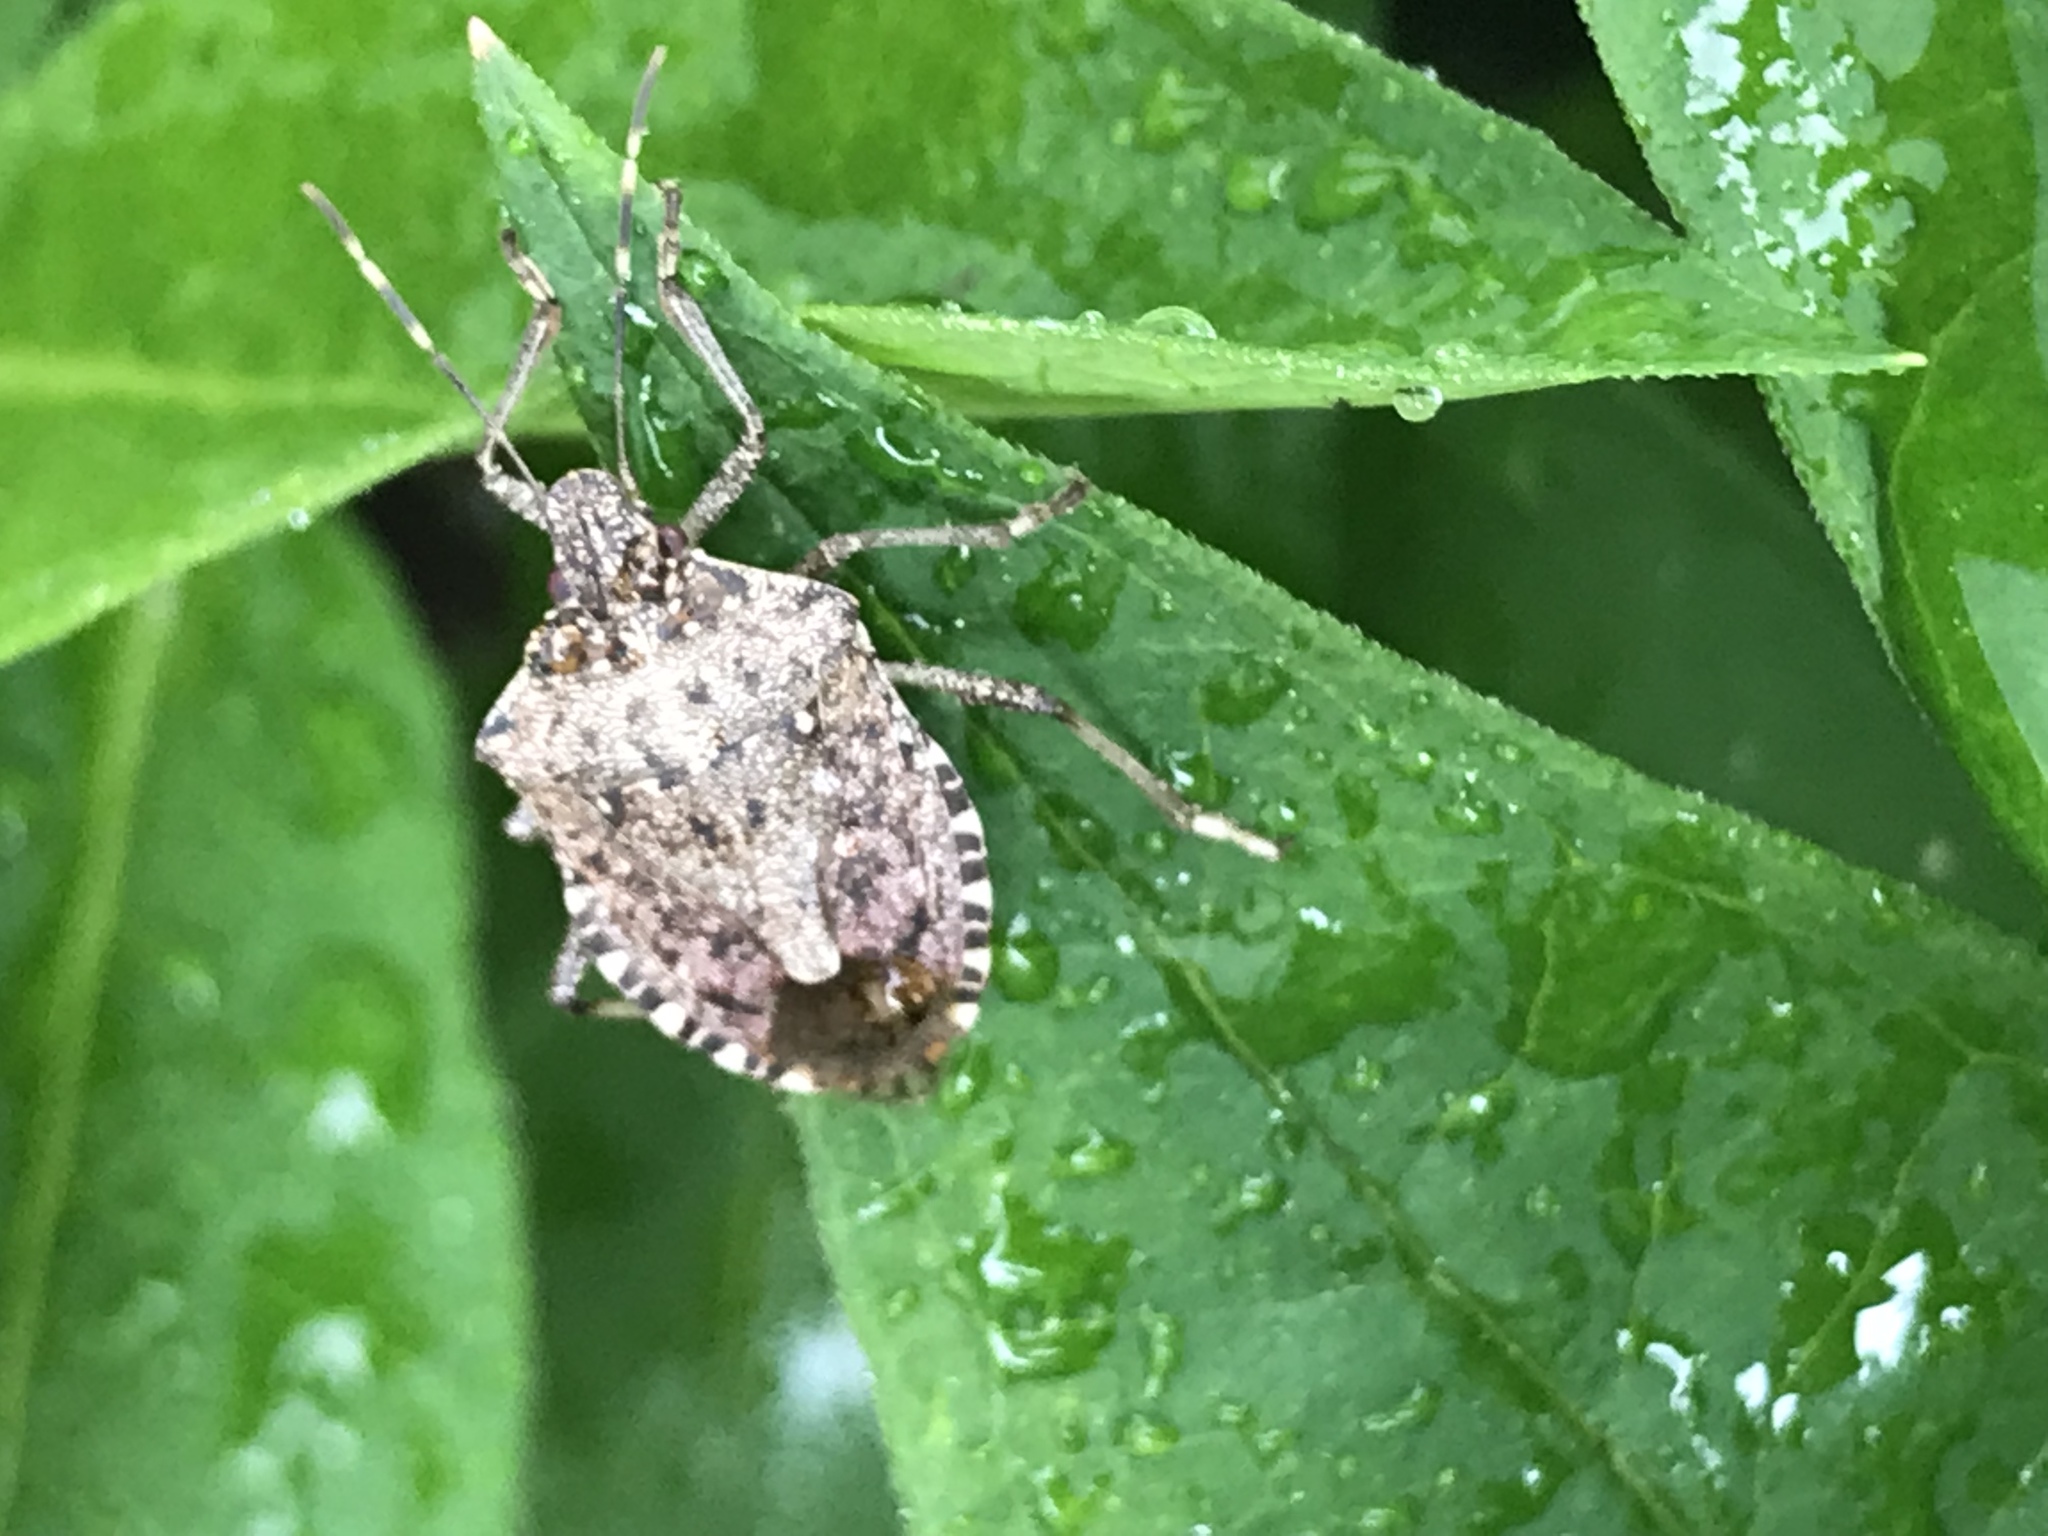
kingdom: Animalia
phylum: Arthropoda
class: Insecta
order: Hemiptera
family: Pentatomidae
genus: Halyomorpha
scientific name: Halyomorpha halys
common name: Brown marmorated stink bug
